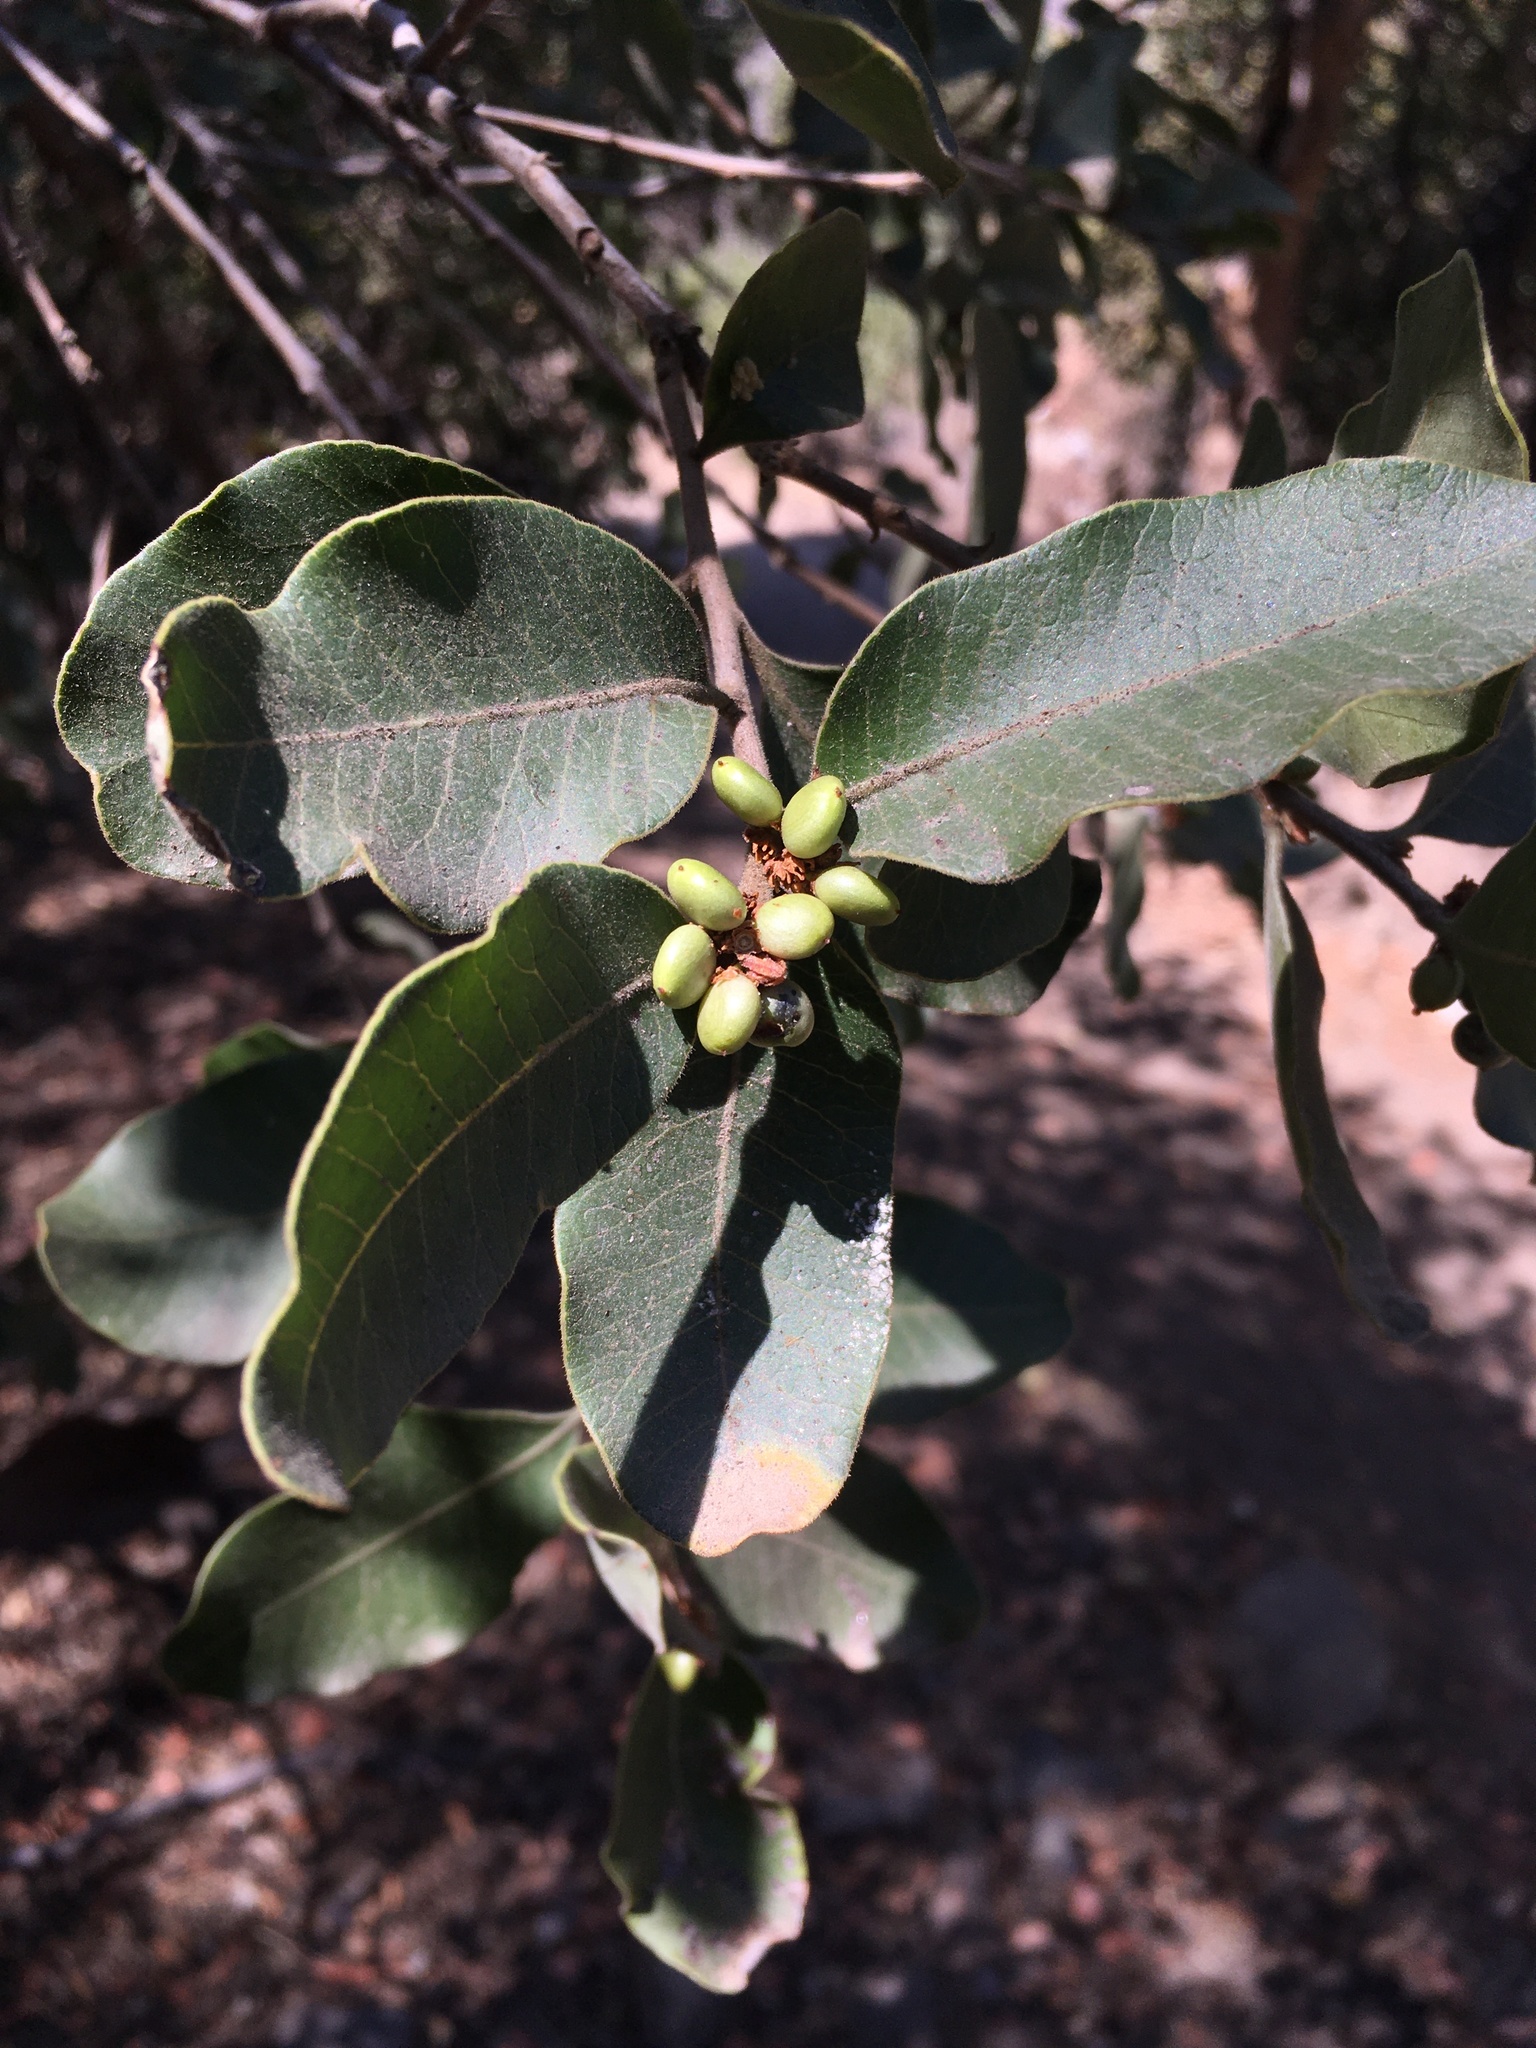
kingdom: Plantae
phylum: Tracheophyta
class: Magnoliopsida
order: Sapindales
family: Anacardiaceae
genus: Lithraea
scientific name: Lithraea caustica
